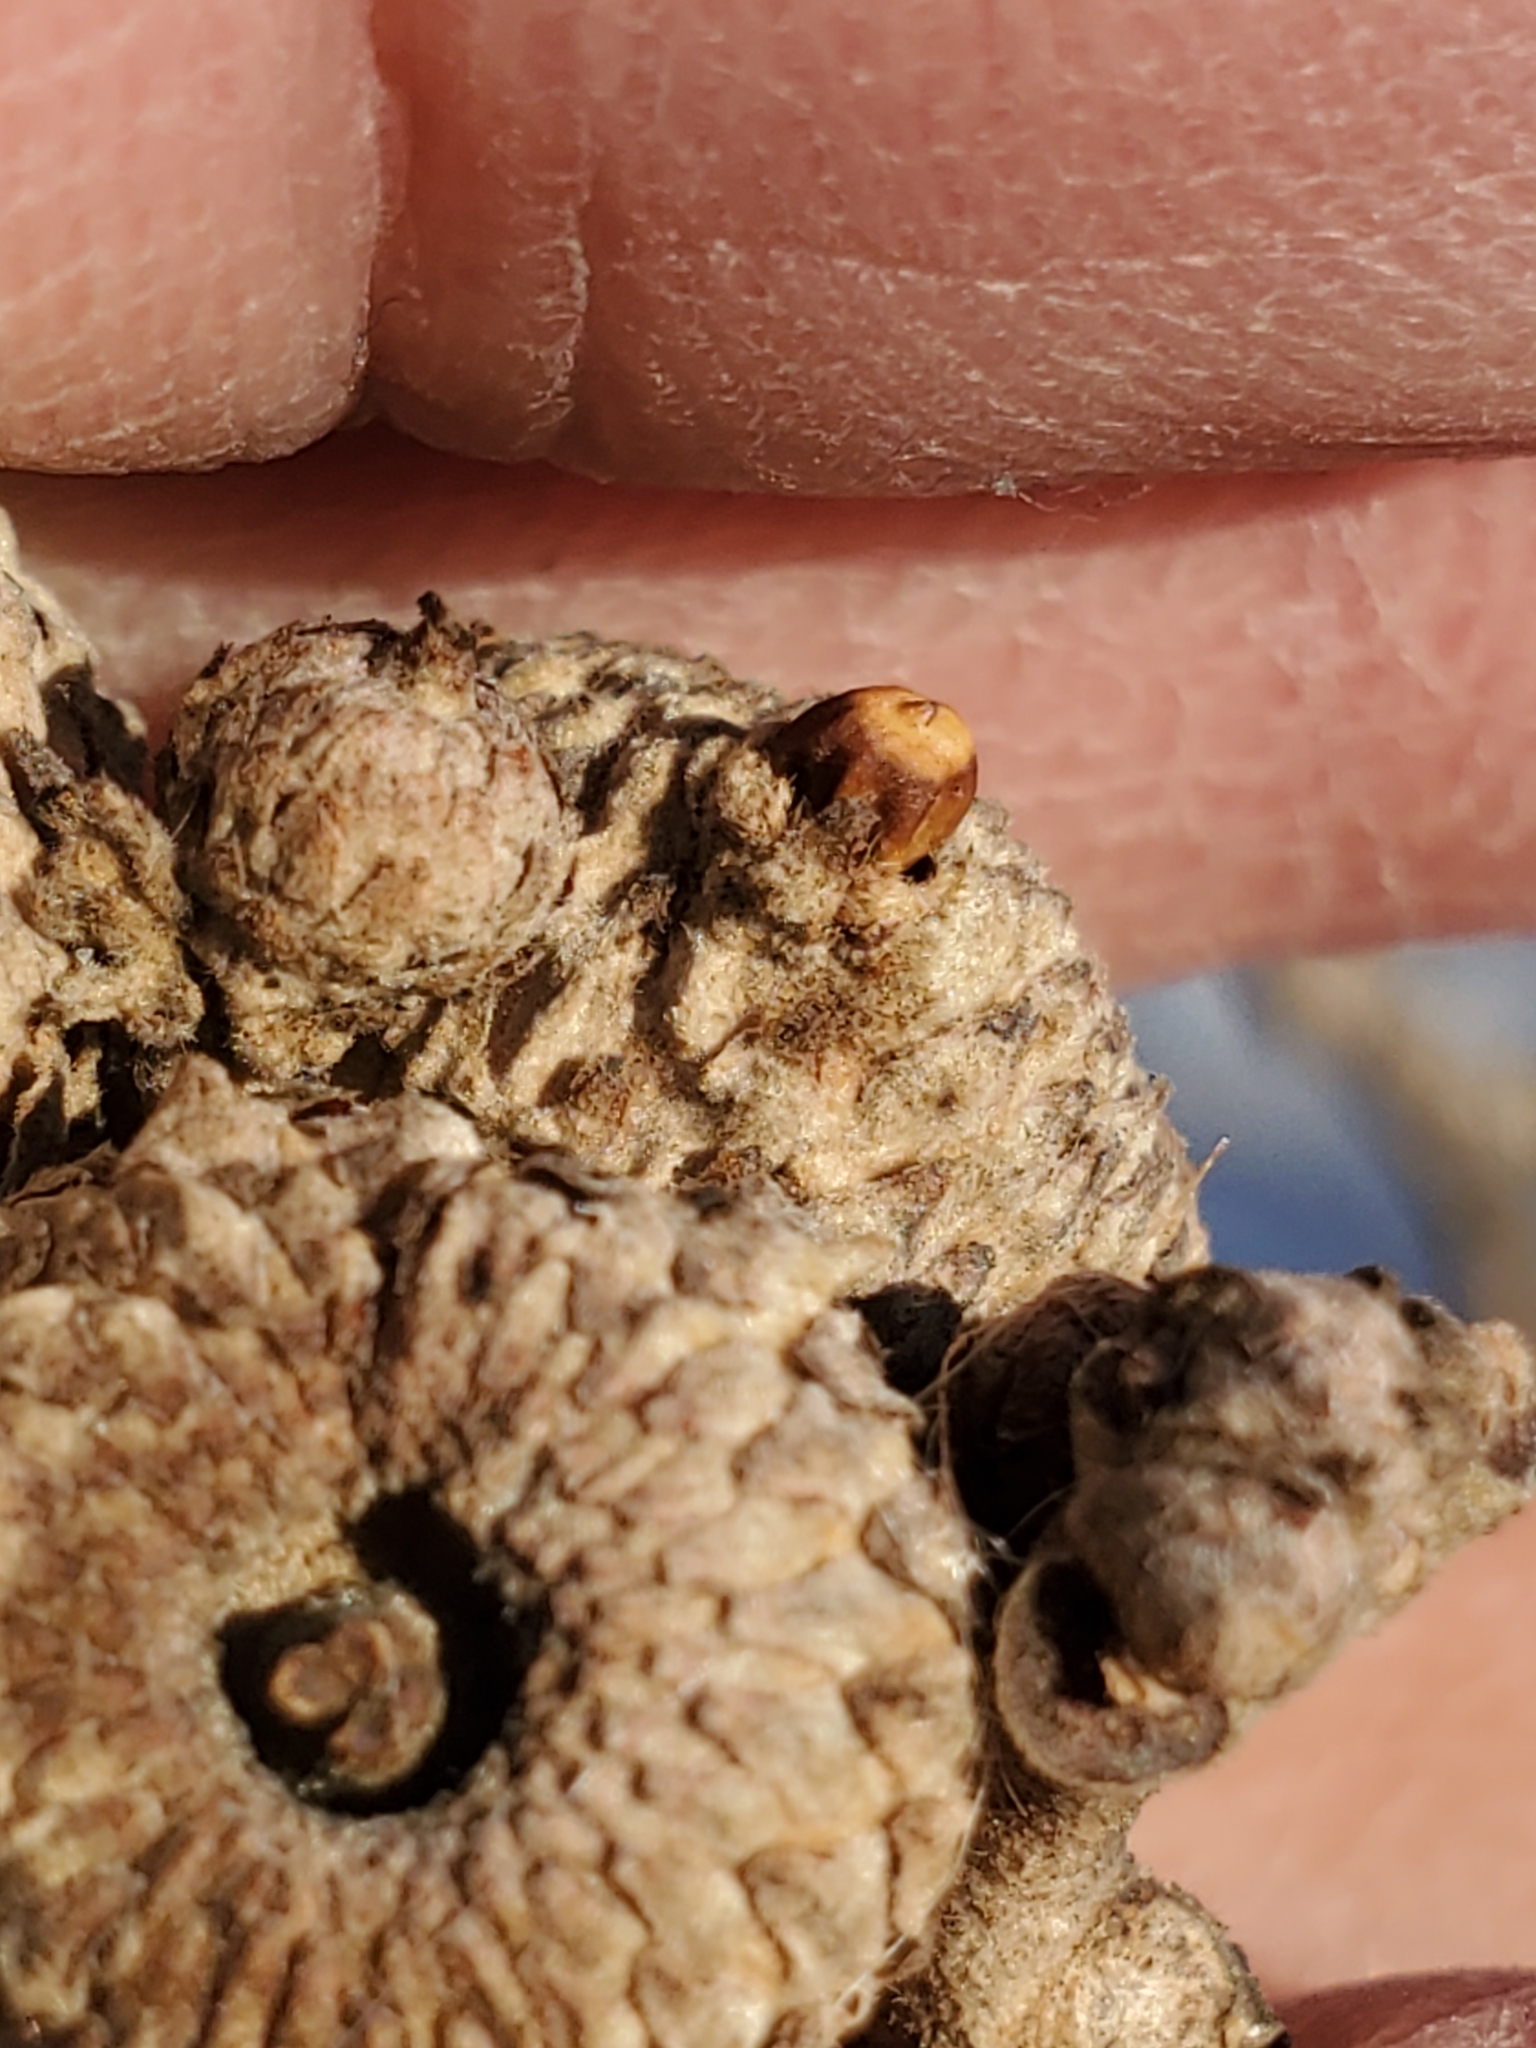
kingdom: Animalia
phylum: Arthropoda
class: Insecta
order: Hymenoptera
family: Cynipidae
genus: Callirhytis
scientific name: Callirhytis glandium
